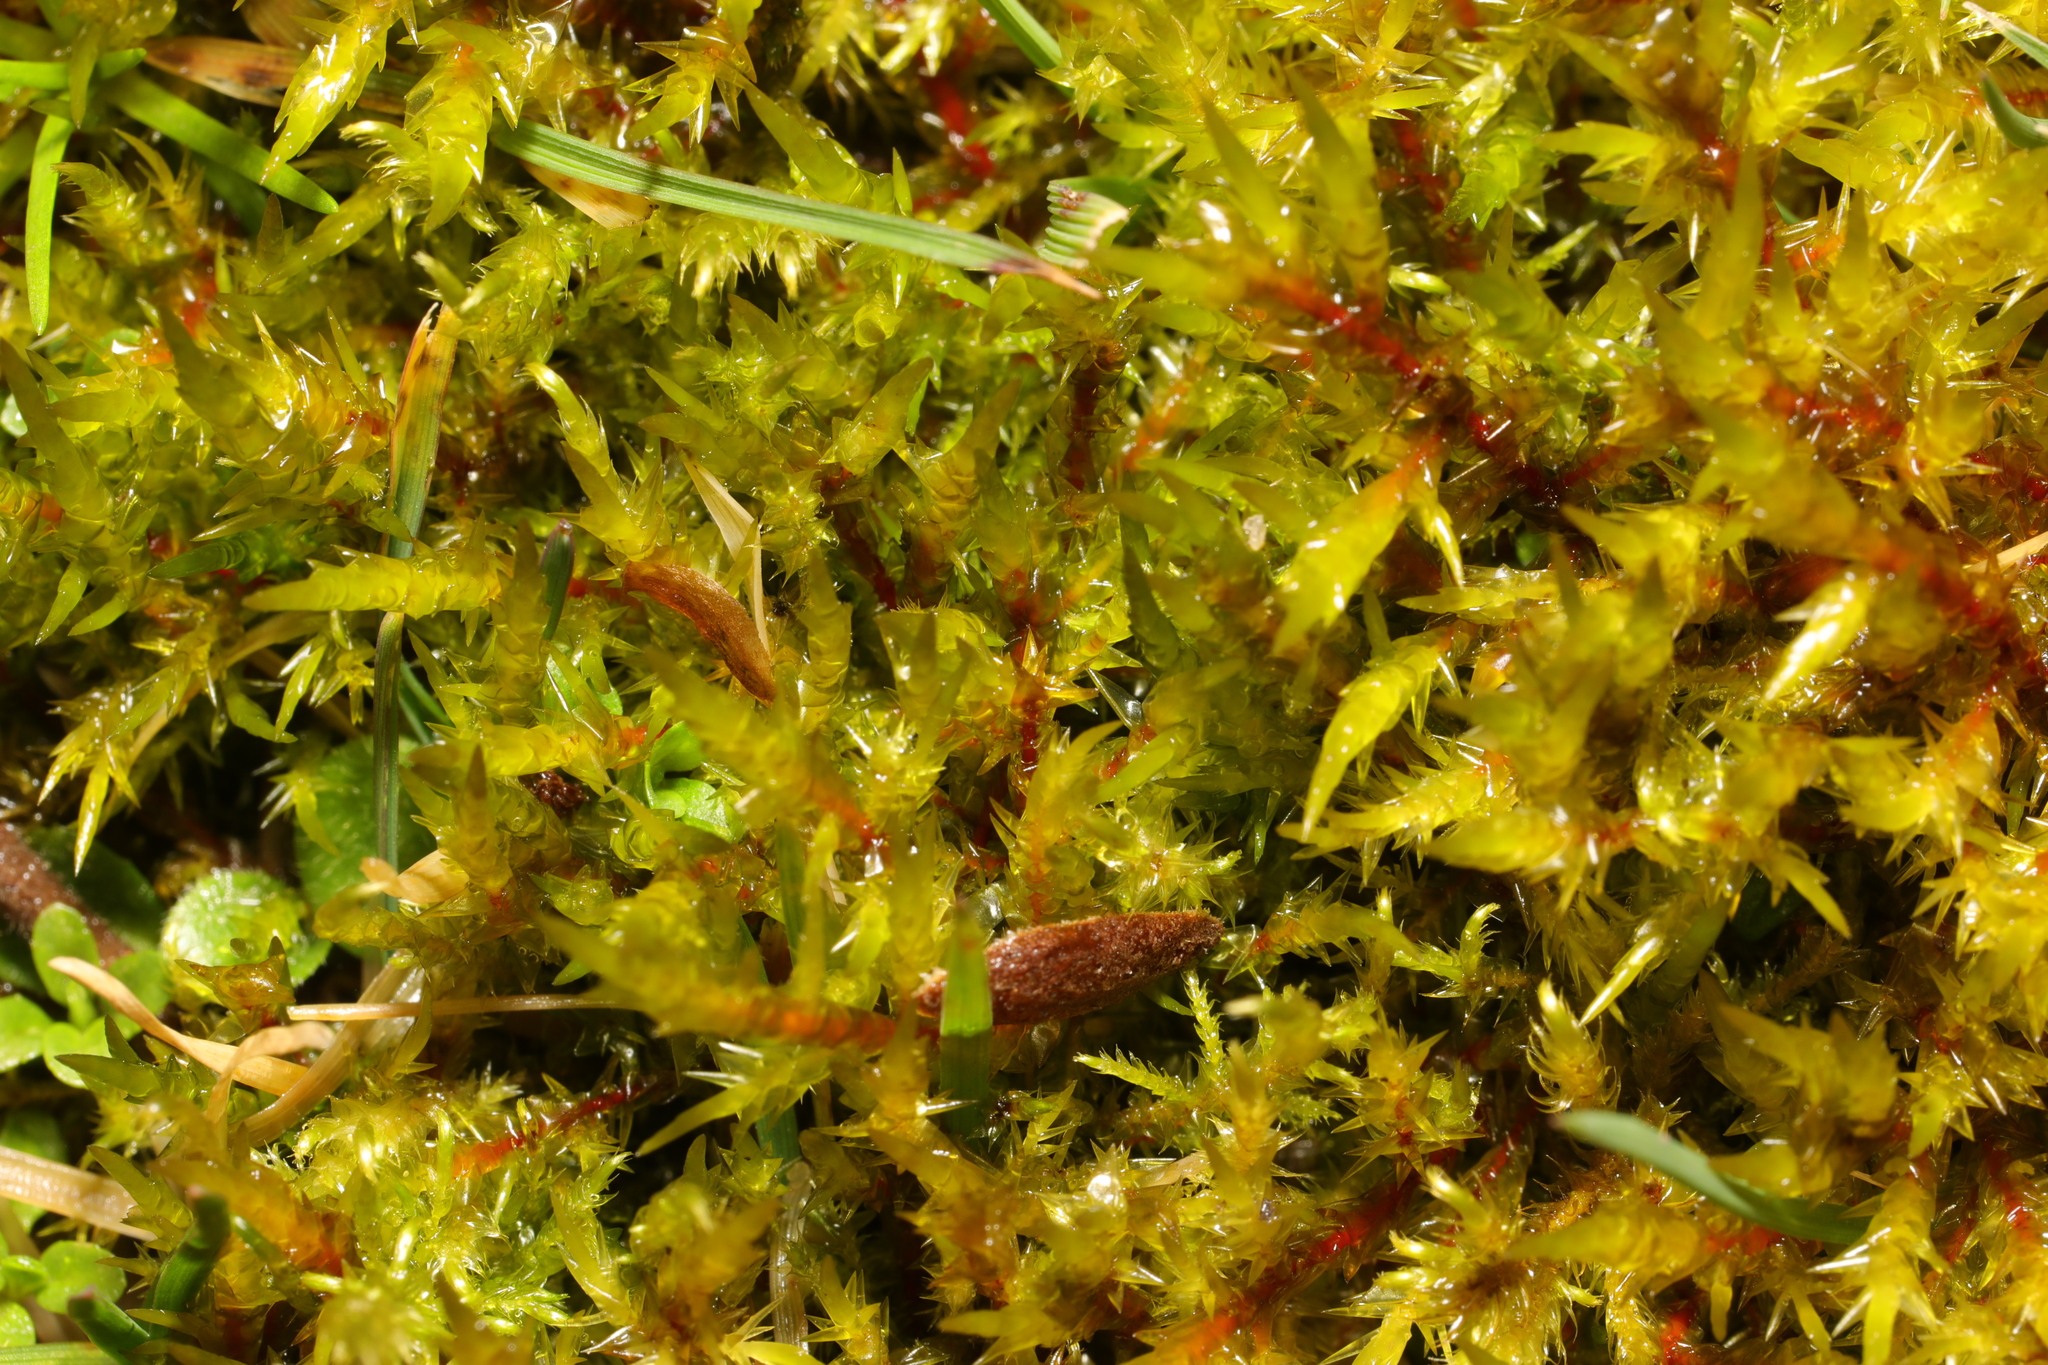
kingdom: Plantae
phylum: Bryophyta
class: Bryopsida
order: Hypnales
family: Pylaisiaceae
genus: Calliergonella
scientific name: Calliergonella cuspidata
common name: Common large wetland moss
